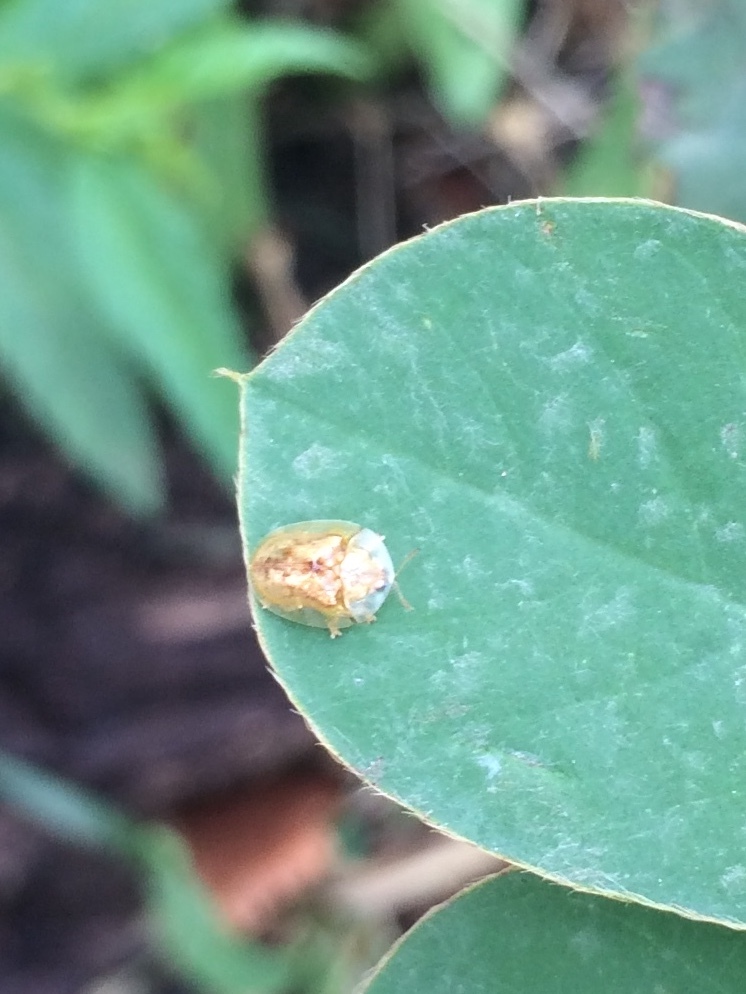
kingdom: Animalia
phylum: Arthropoda
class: Insecta
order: Coleoptera
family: Chrysomelidae
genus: Cassida
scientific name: Cassida subtilis
